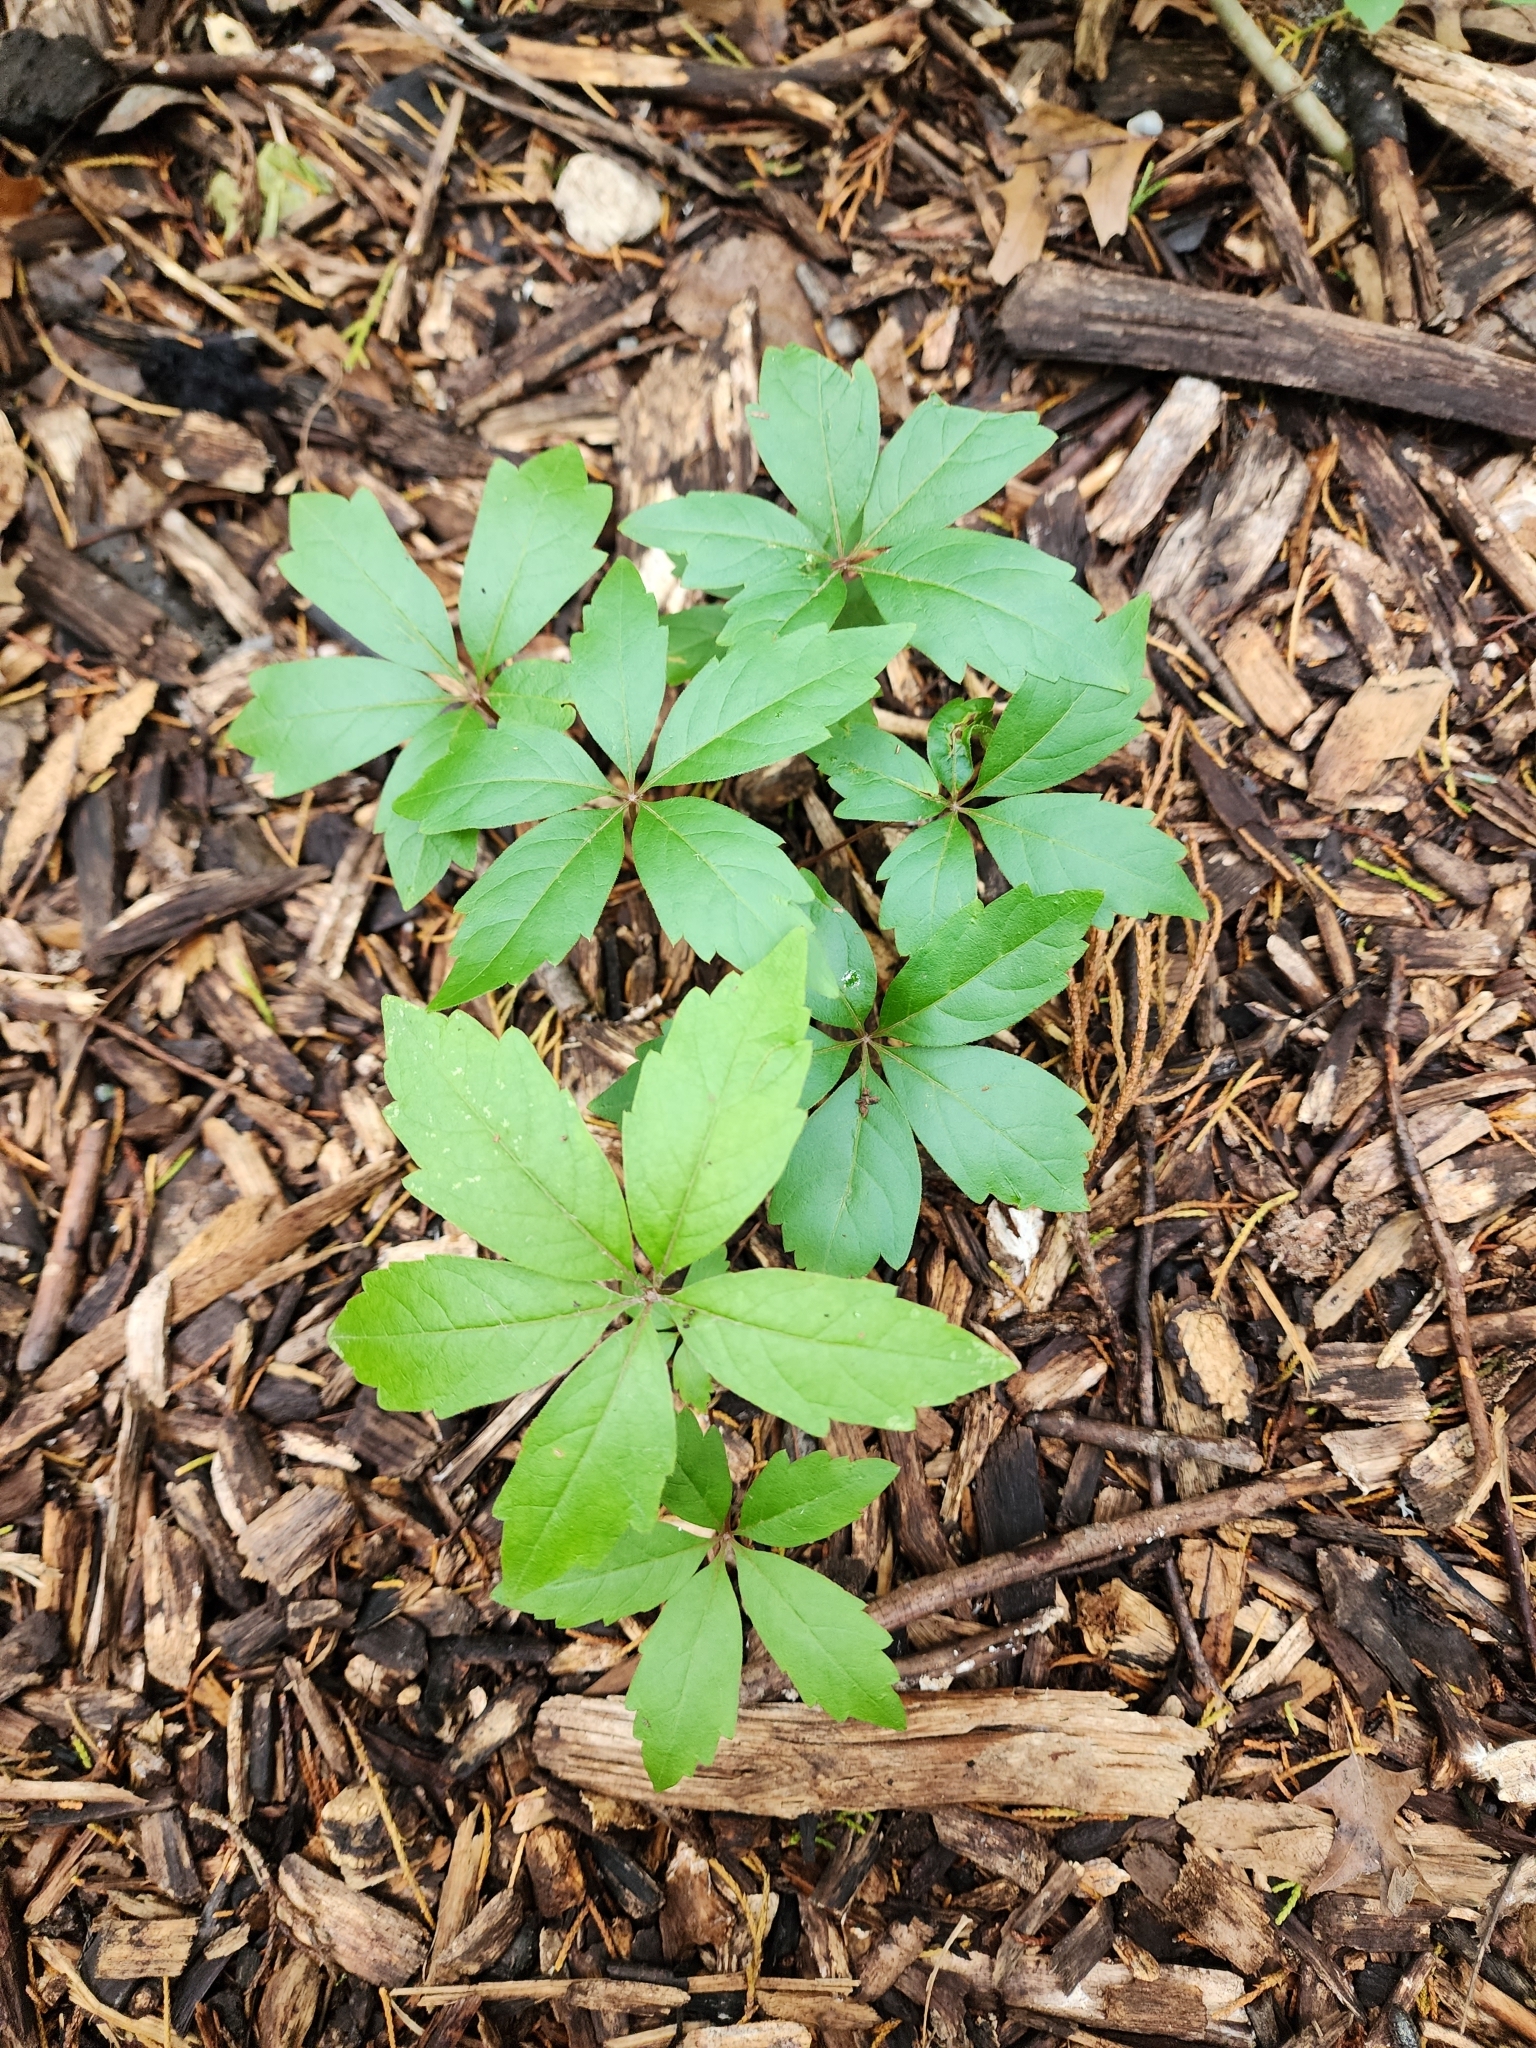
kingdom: Plantae
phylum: Tracheophyta
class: Magnoliopsida
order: Vitales
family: Vitaceae
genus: Parthenocissus
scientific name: Parthenocissus quinquefolia
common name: Virginia-creeper
